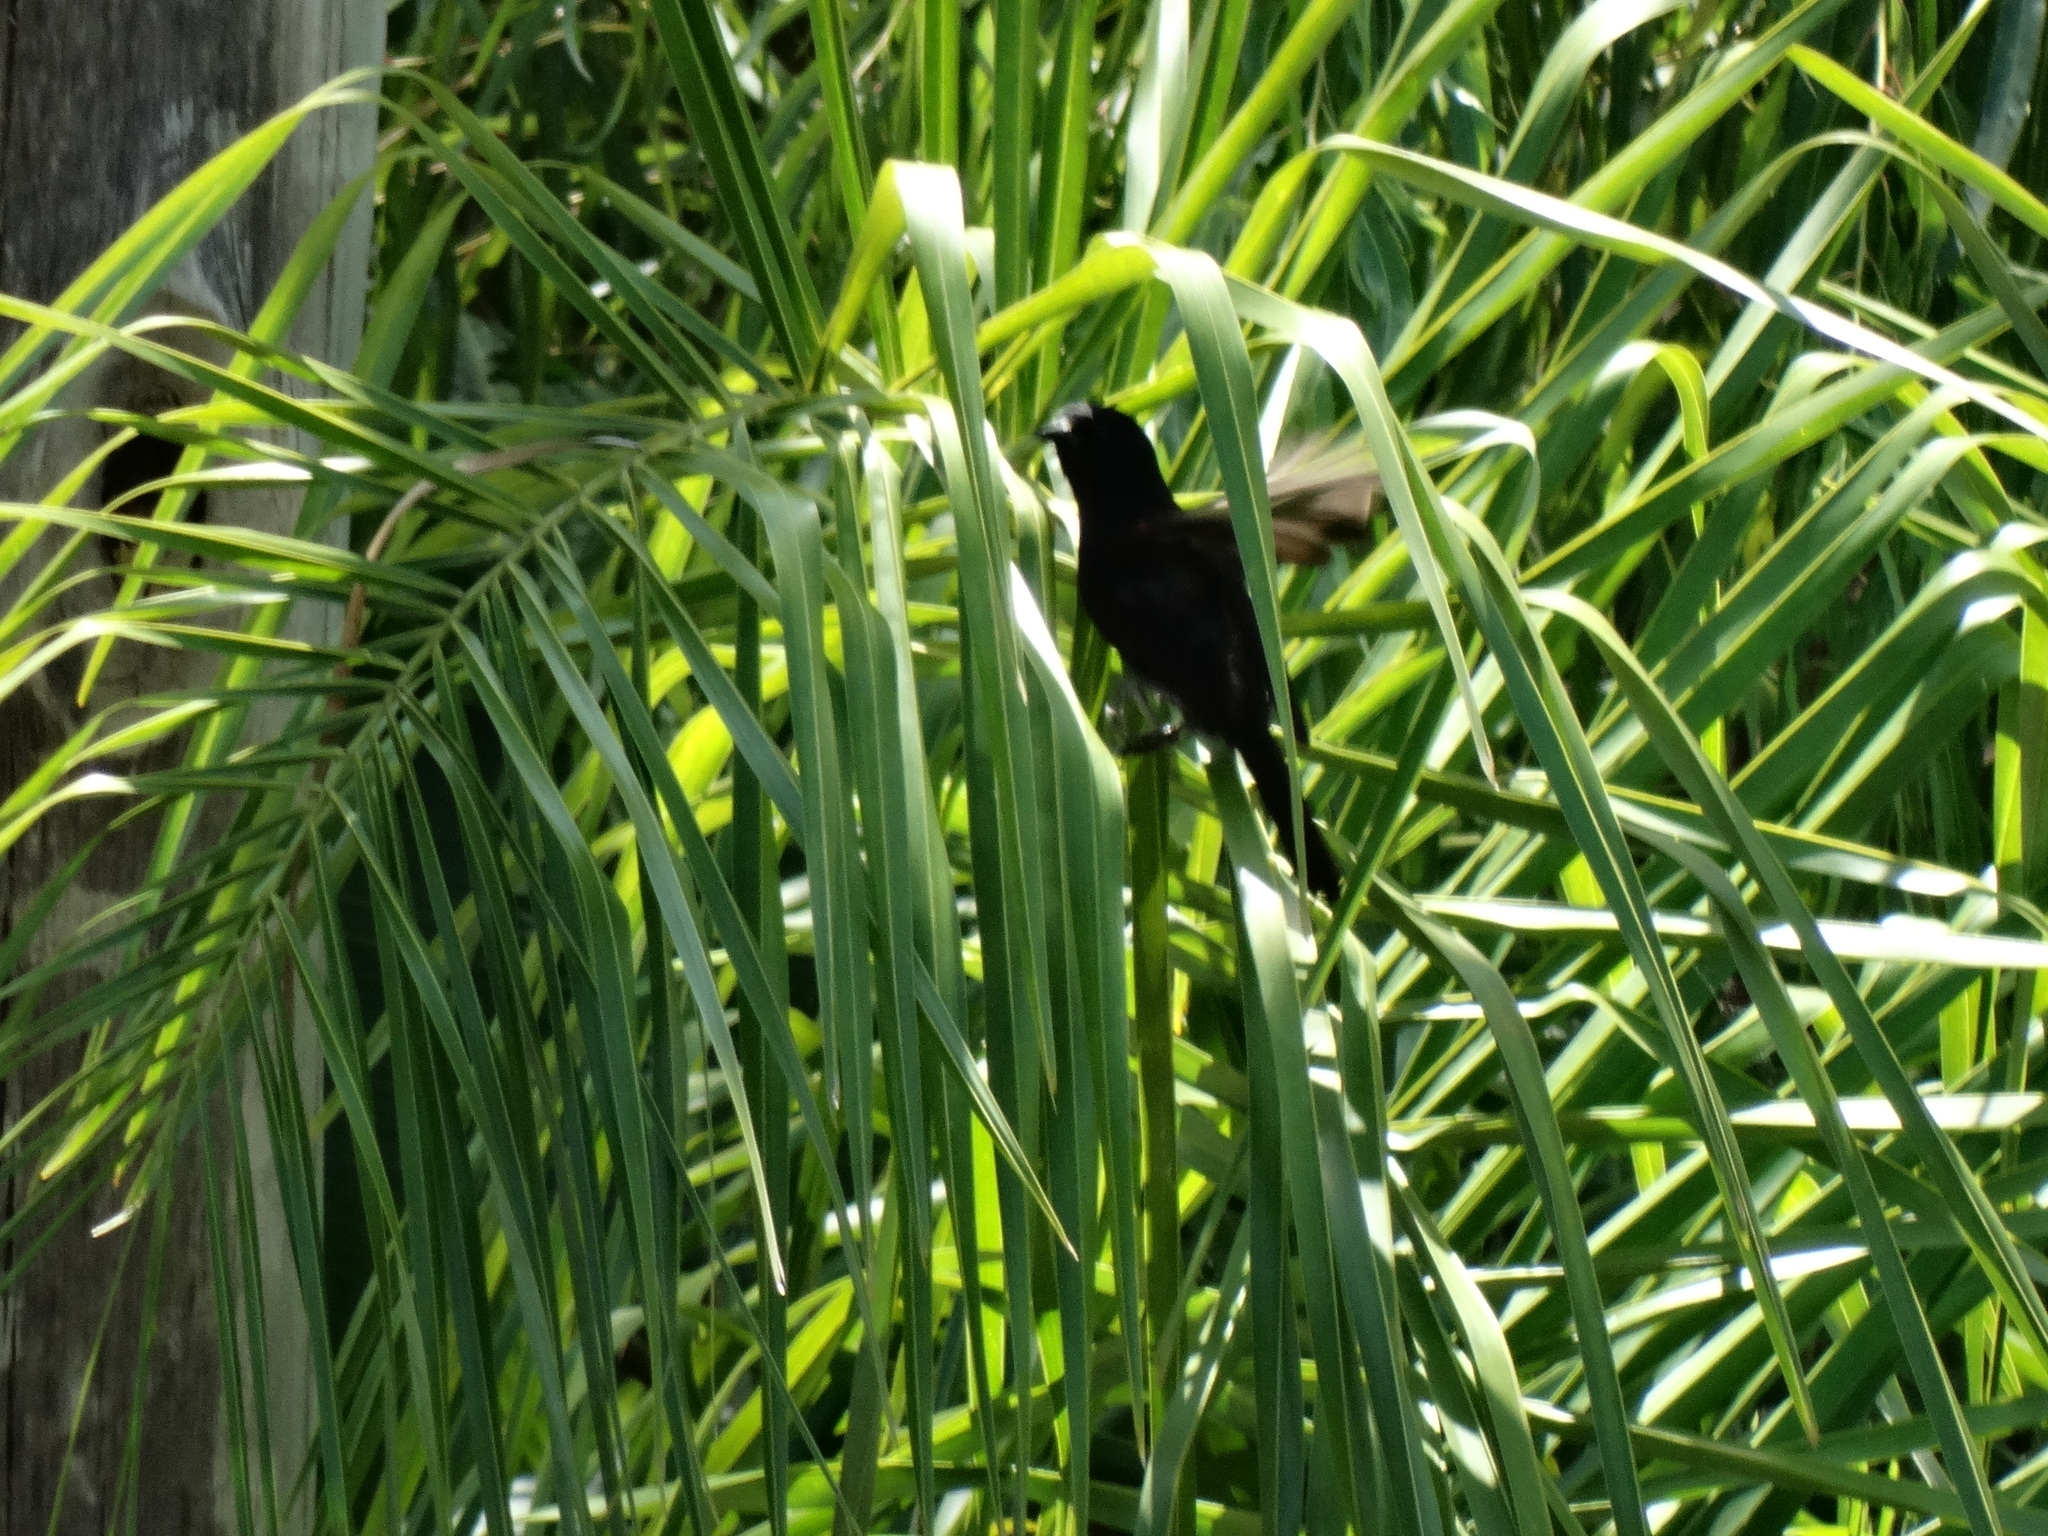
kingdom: Animalia
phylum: Chordata
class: Aves
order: Passeriformes
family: Icteridae
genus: Icterus
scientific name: Icterus cayanensis
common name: Epaulet oriole
